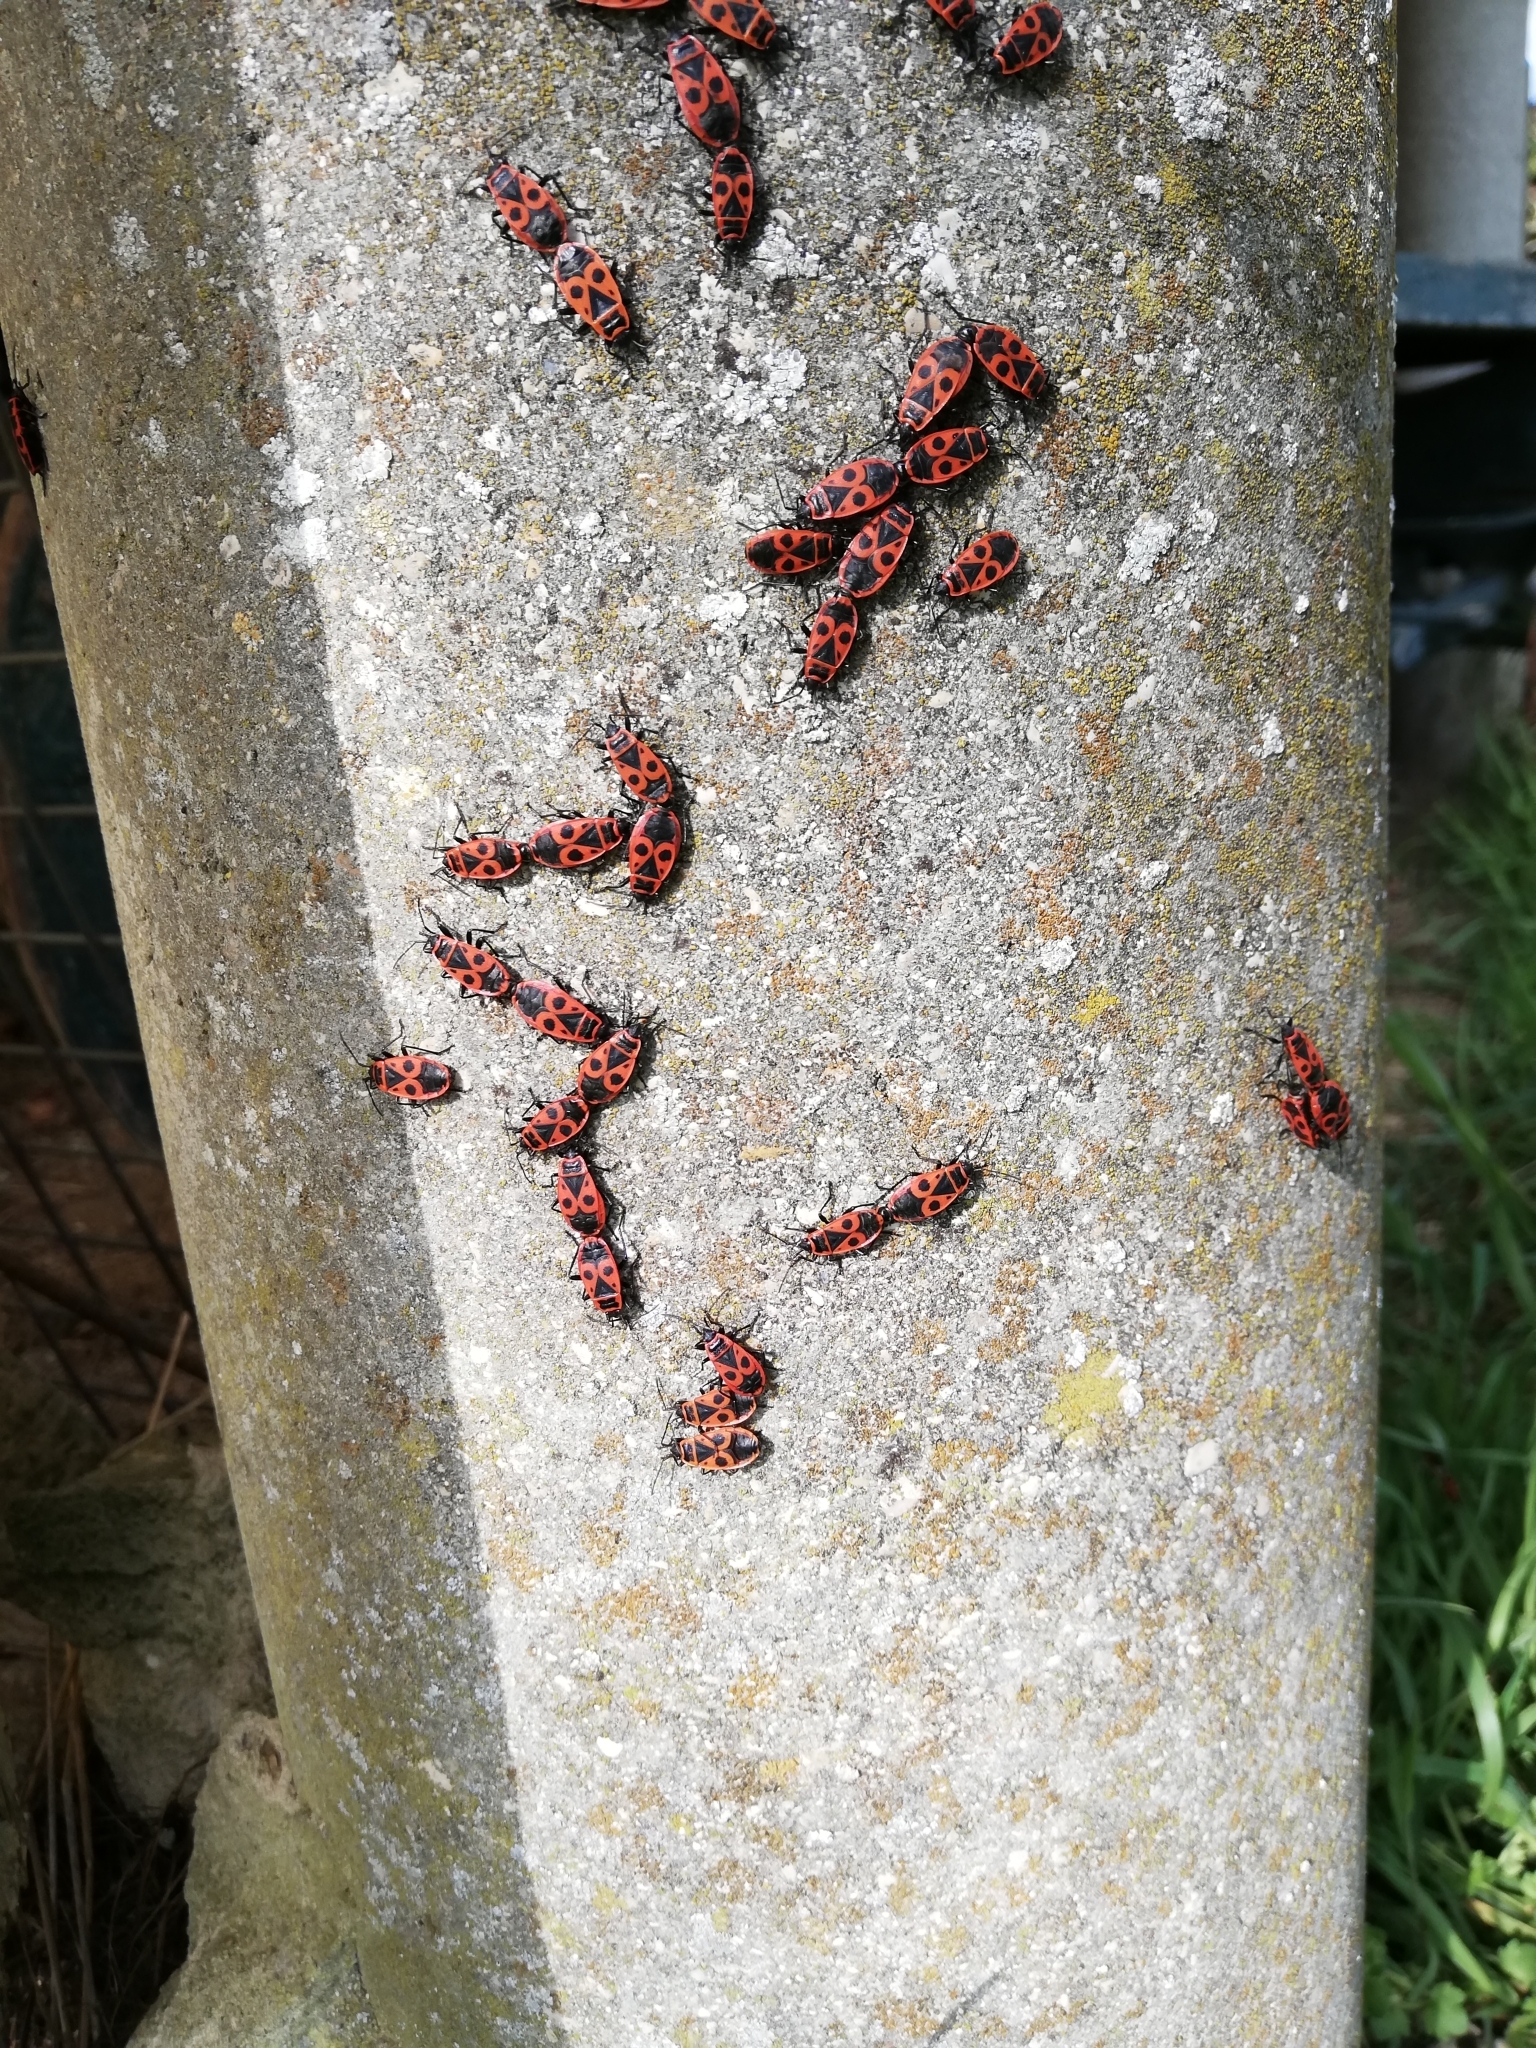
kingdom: Animalia
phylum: Arthropoda
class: Insecta
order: Hemiptera
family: Pyrrhocoridae
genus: Pyrrhocoris
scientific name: Pyrrhocoris apterus
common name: Firebug
